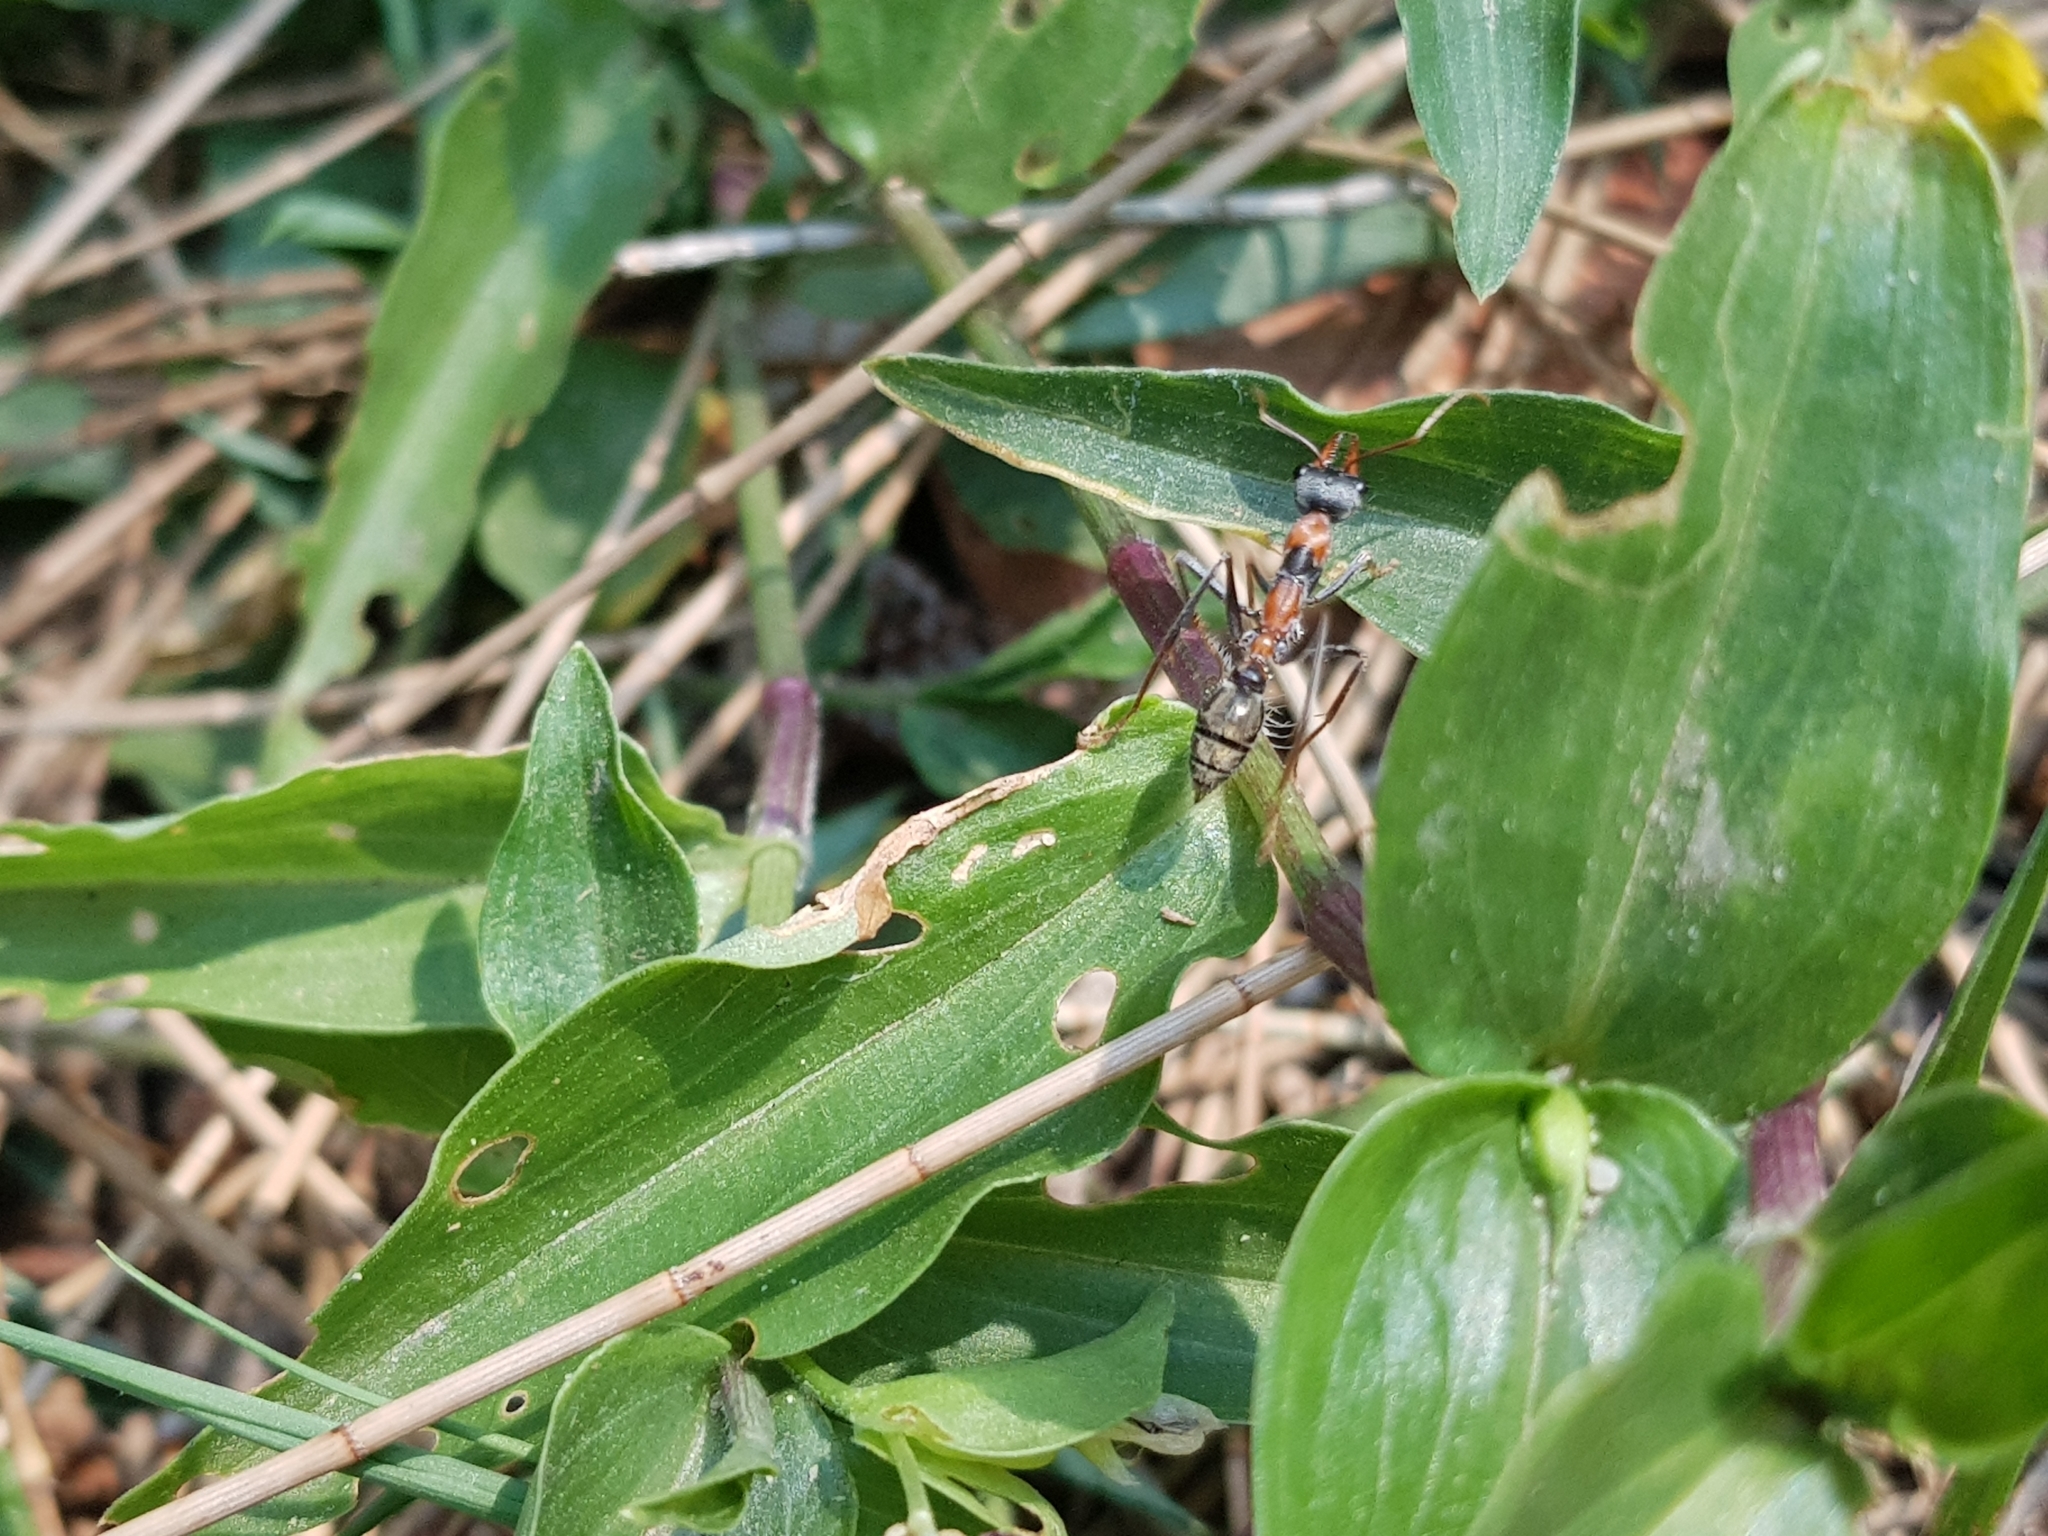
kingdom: Animalia
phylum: Arthropoda
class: Insecta
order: Hymenoptera
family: Formicidae
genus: Myrmecia
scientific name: Myrmecia nigrocincta
